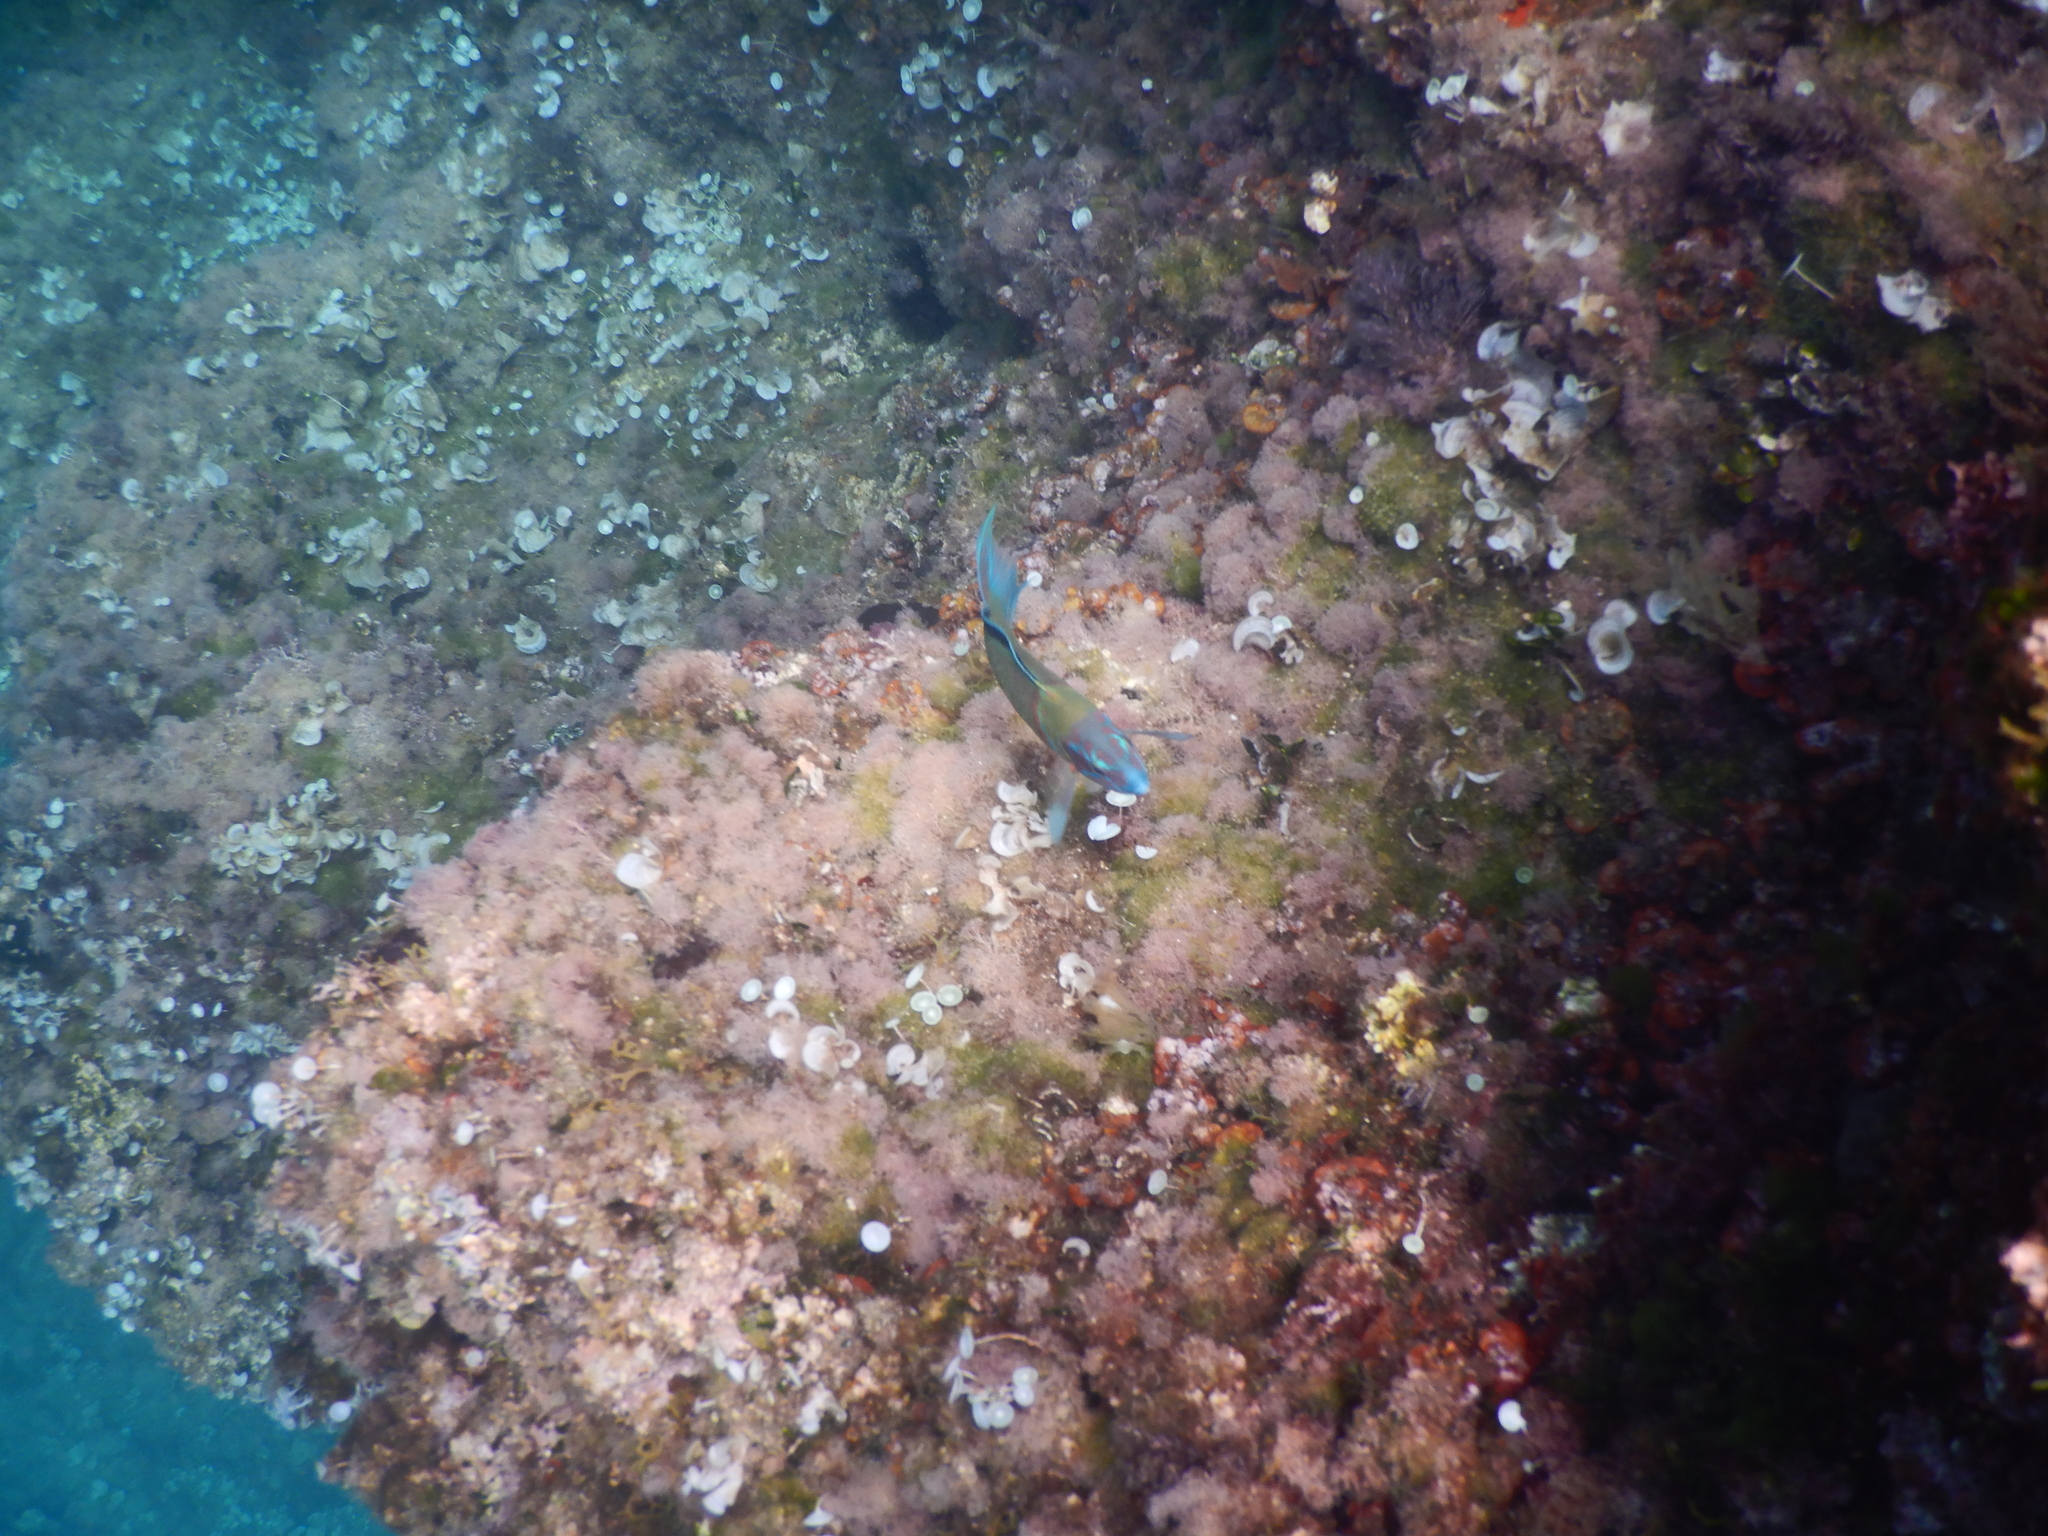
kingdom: Animalia
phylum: Chordata
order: Perciformes
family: Labridae
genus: Thalassoma
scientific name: Thalassoma pavo
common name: Ornate wrasse
